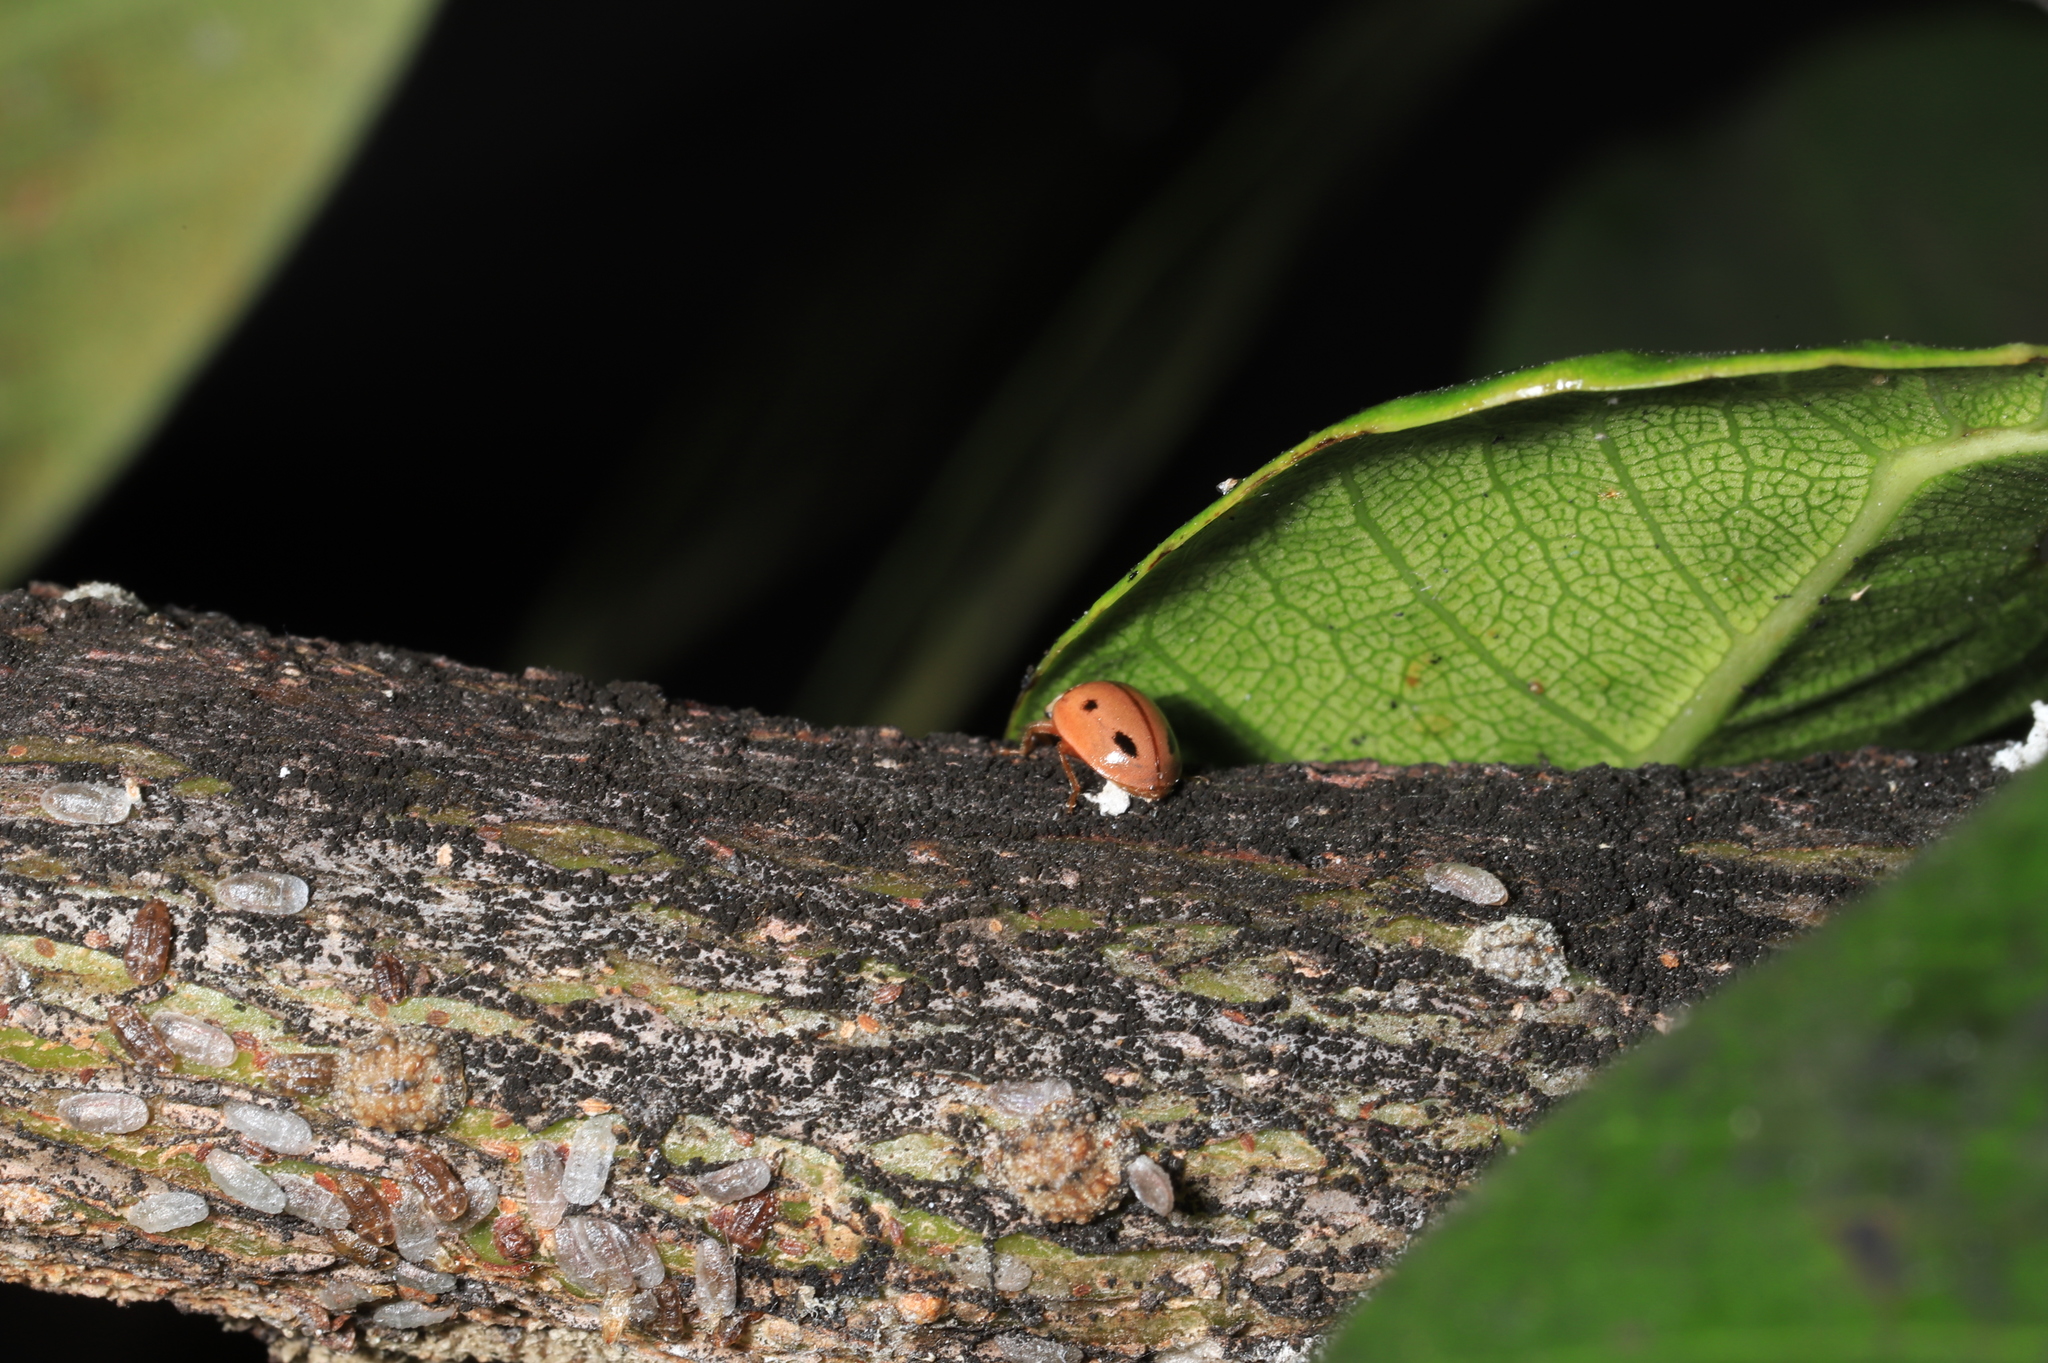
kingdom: Animalia
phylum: Arthropoda
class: Insecta
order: Coleoptera
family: Coccinellidae
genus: Mulsantina
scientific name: Mulsantina
